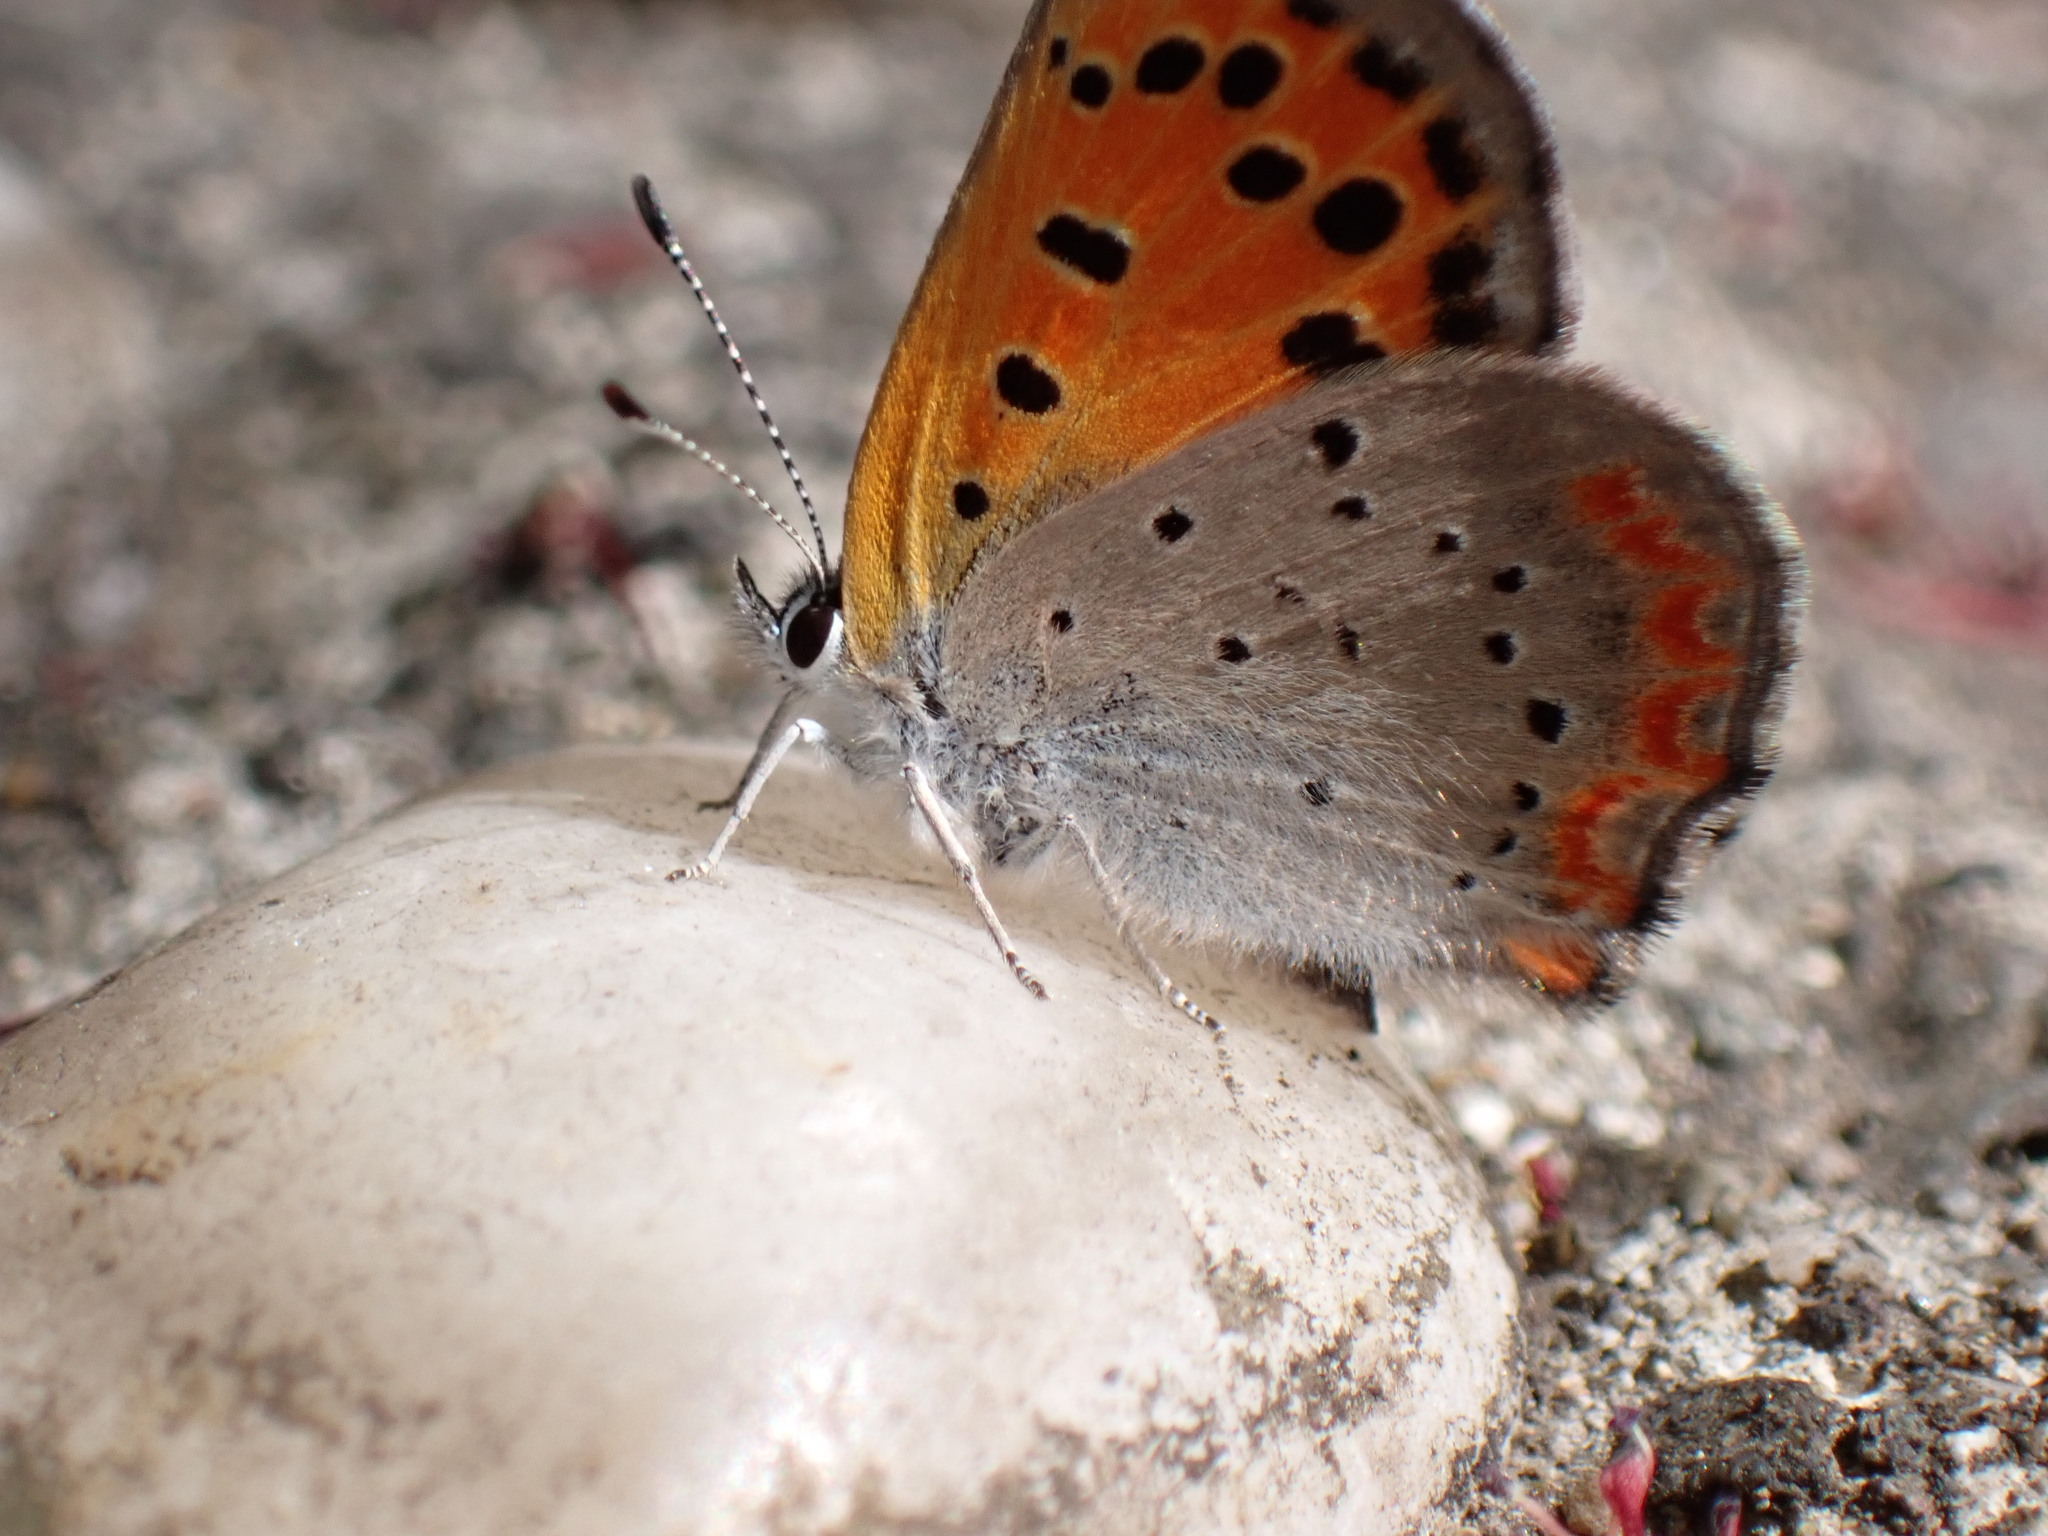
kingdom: Animalia
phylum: Arthropoda
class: Insecta
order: Lepidoptera
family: Lycaenidae
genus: Lycaena
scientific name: Lycaena phlaeas
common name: Small copper
